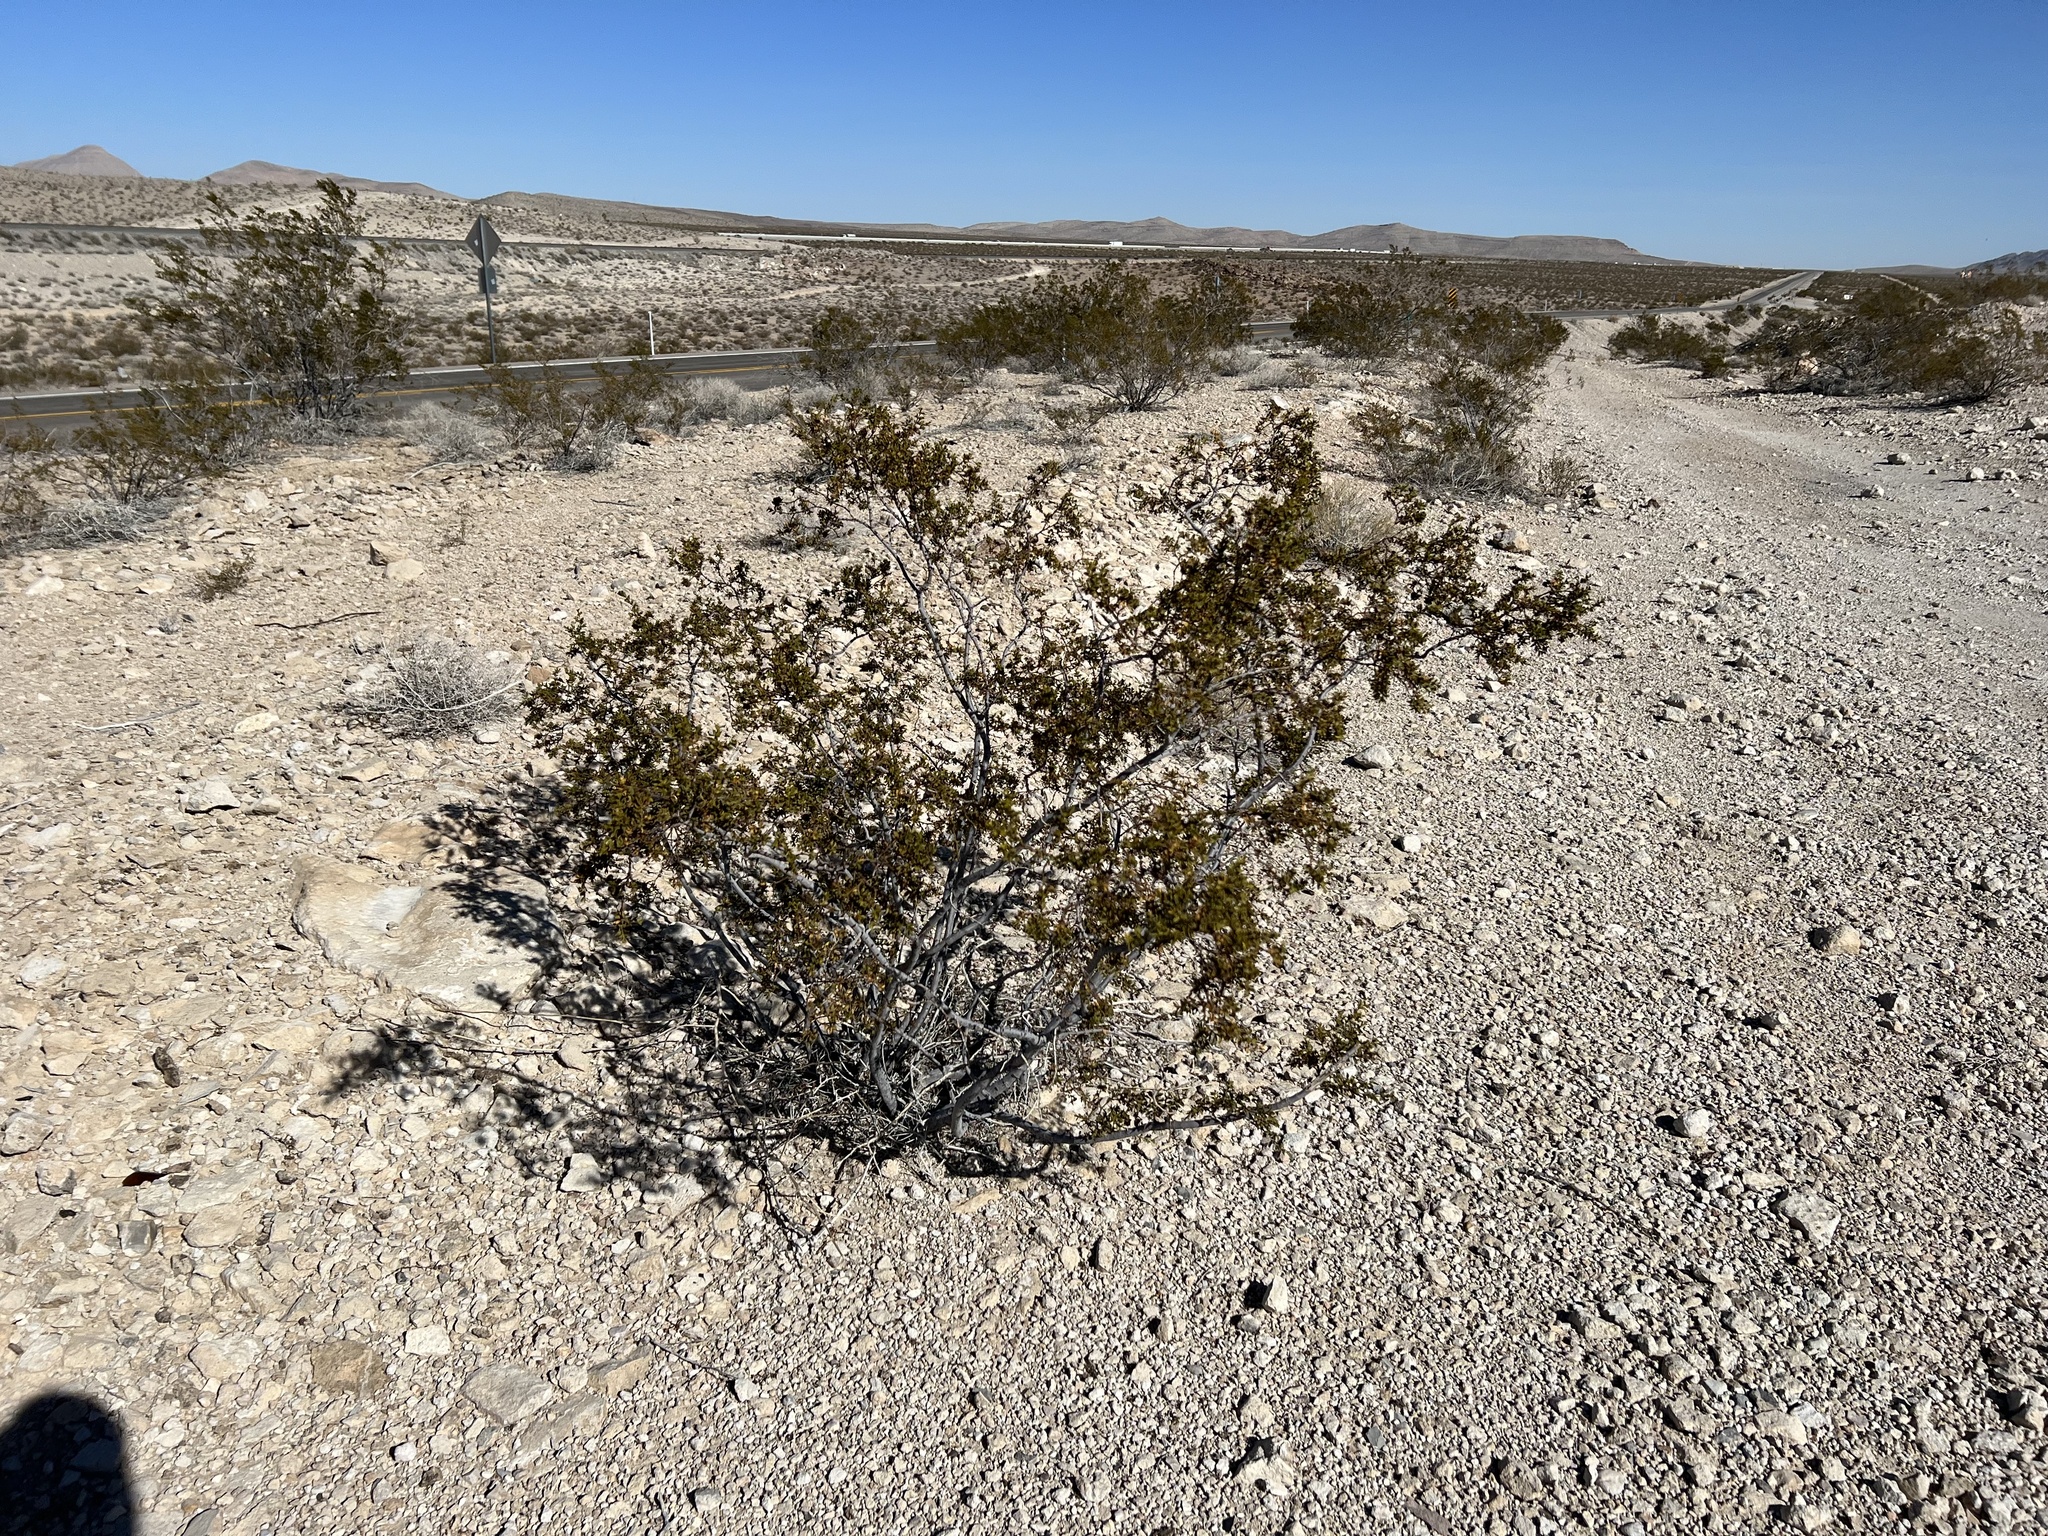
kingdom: Plantae
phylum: Tracheophyta
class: Magnoliopsida
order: Zygophyllales
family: Zygophyllaceae
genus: Larrea
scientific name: Larrea tridentata
